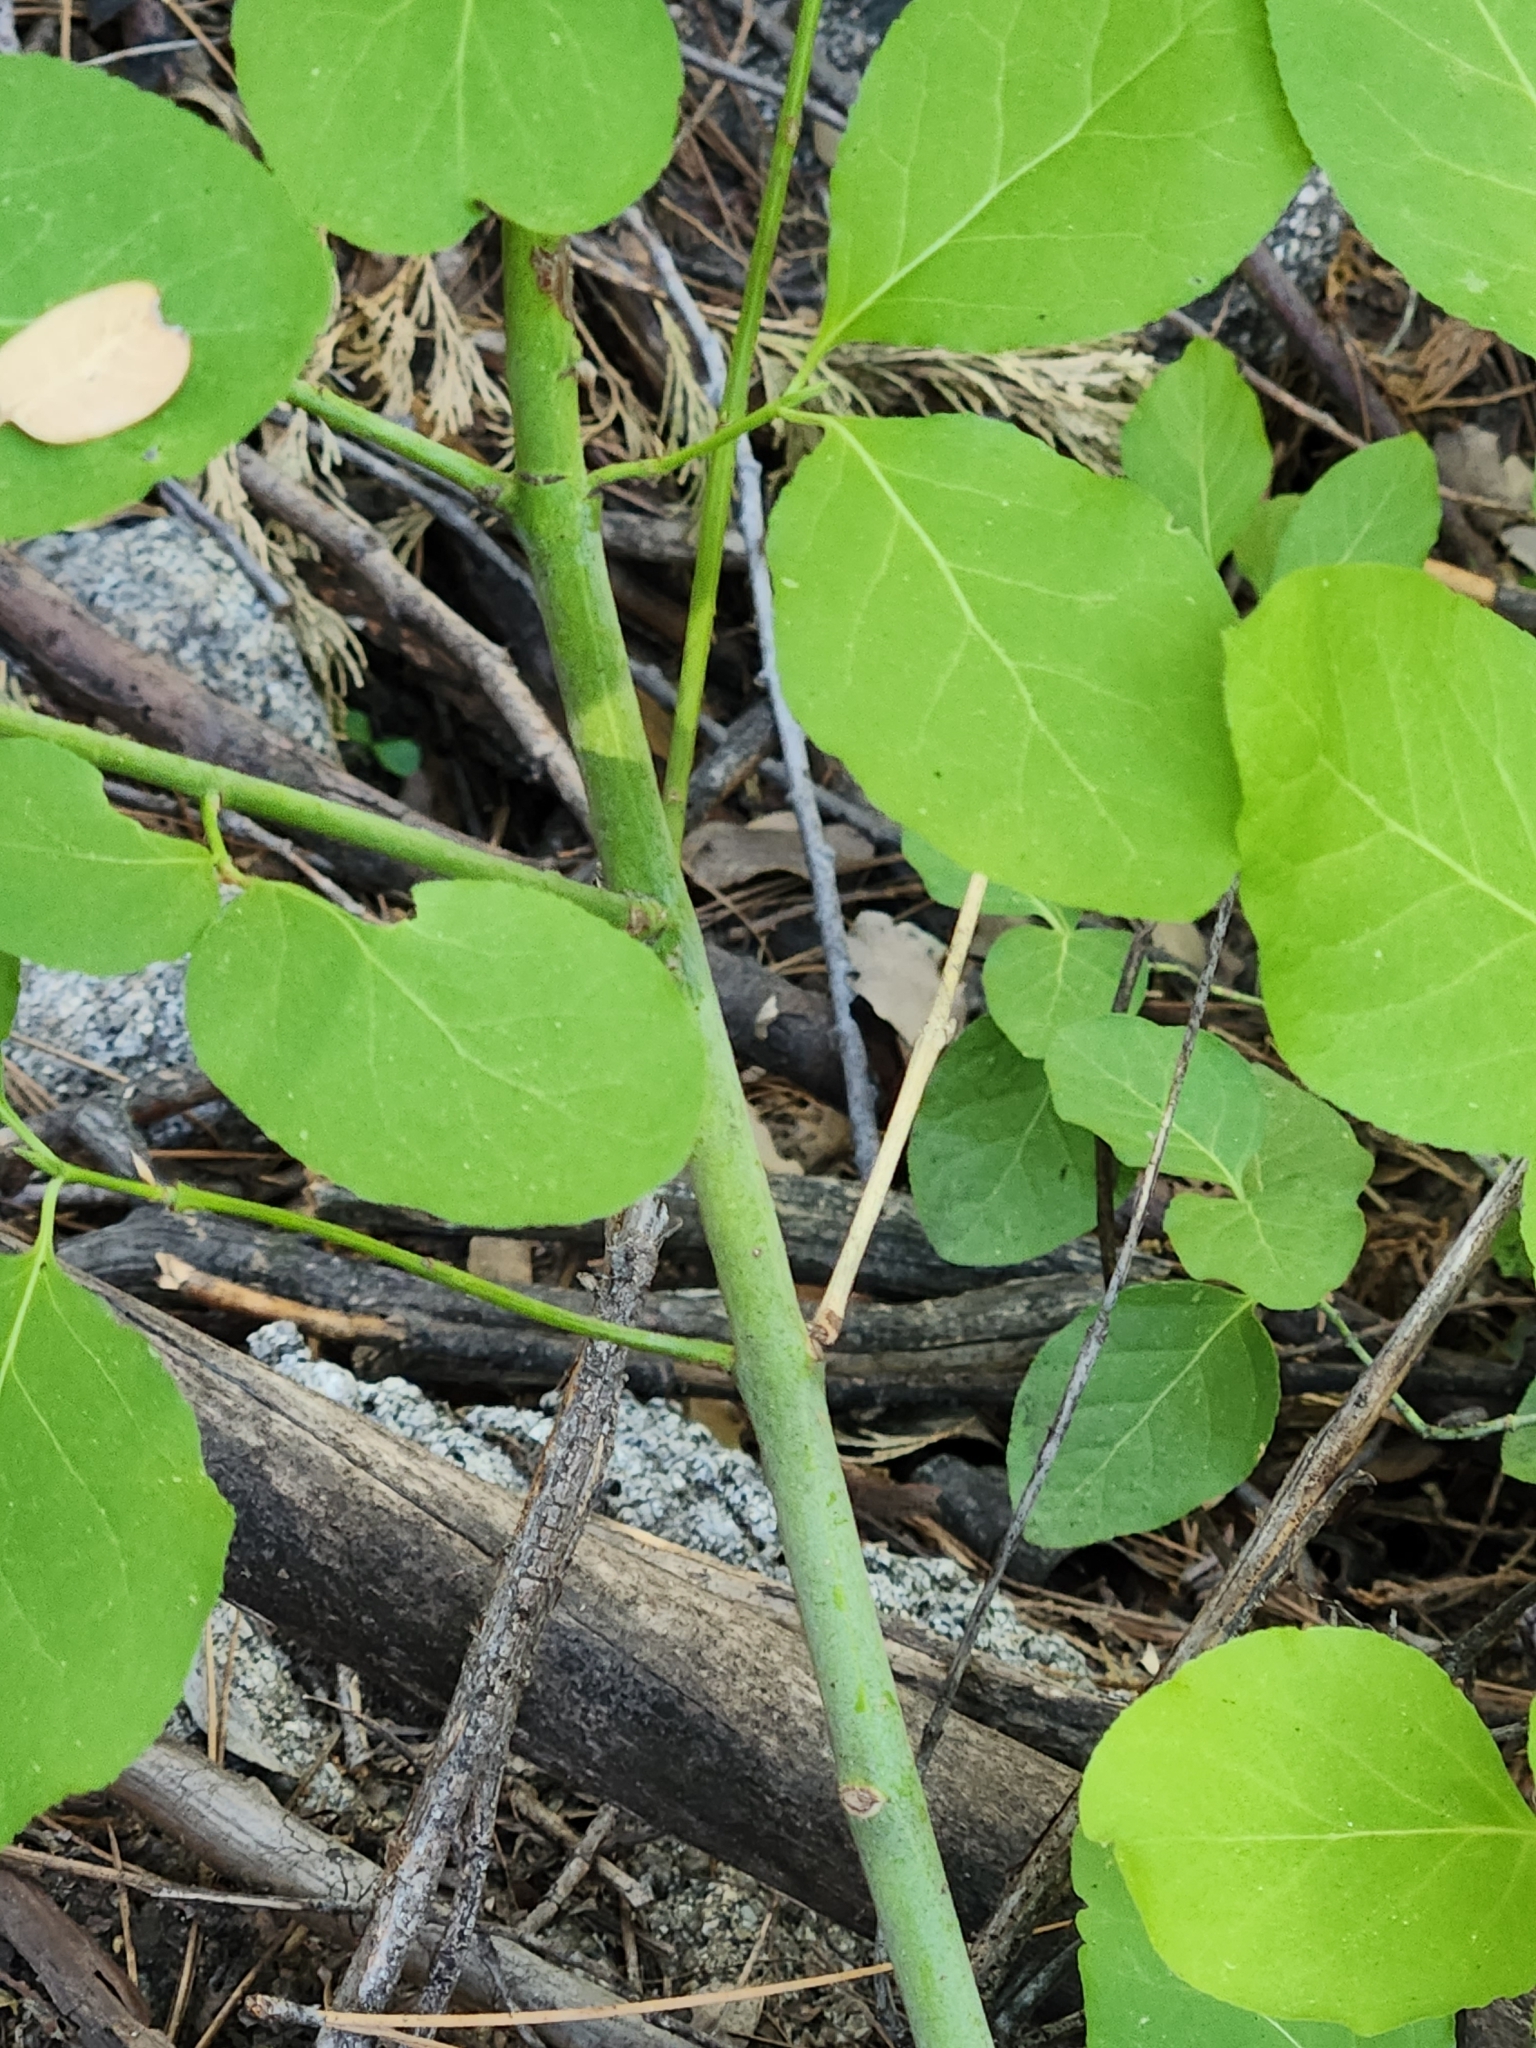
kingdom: Plantae
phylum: Tracheophyta
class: Magnoliopsida
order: Celastrales
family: Celastraceae
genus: Euonymus
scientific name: Euonymus occidentalis
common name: Western burningbush
